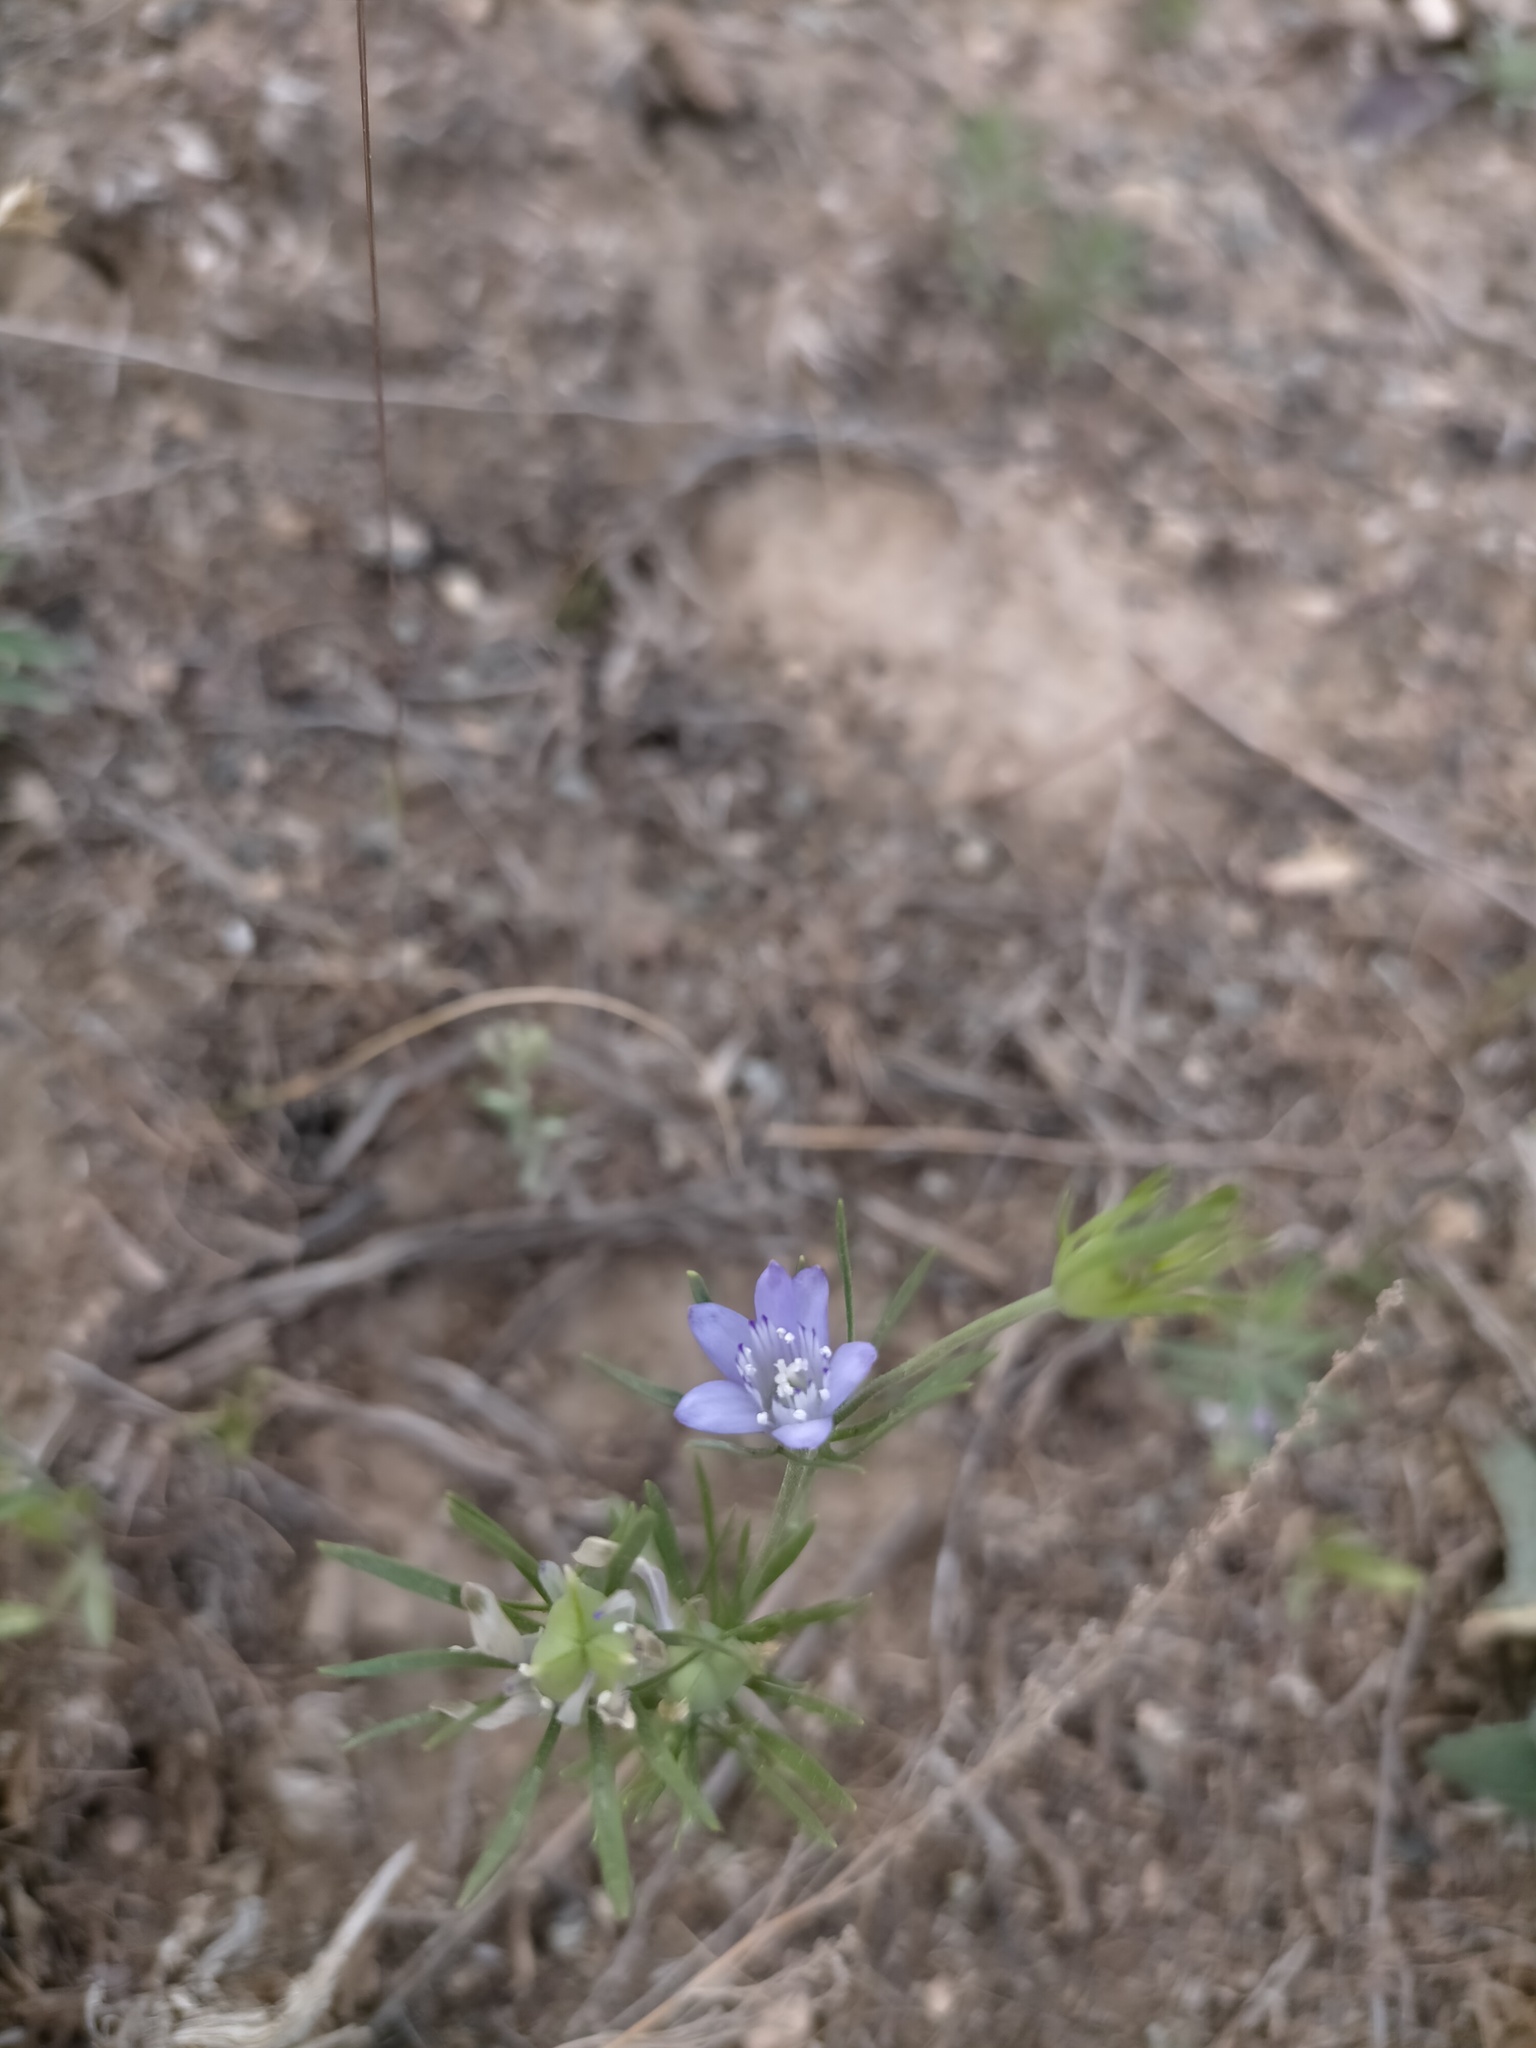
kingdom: Plantae
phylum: Tracheophyta
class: Magnoliopsida
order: Ranunculales
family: Ranunculaceae
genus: Komaroffia
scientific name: Komaroffia integrifolia
